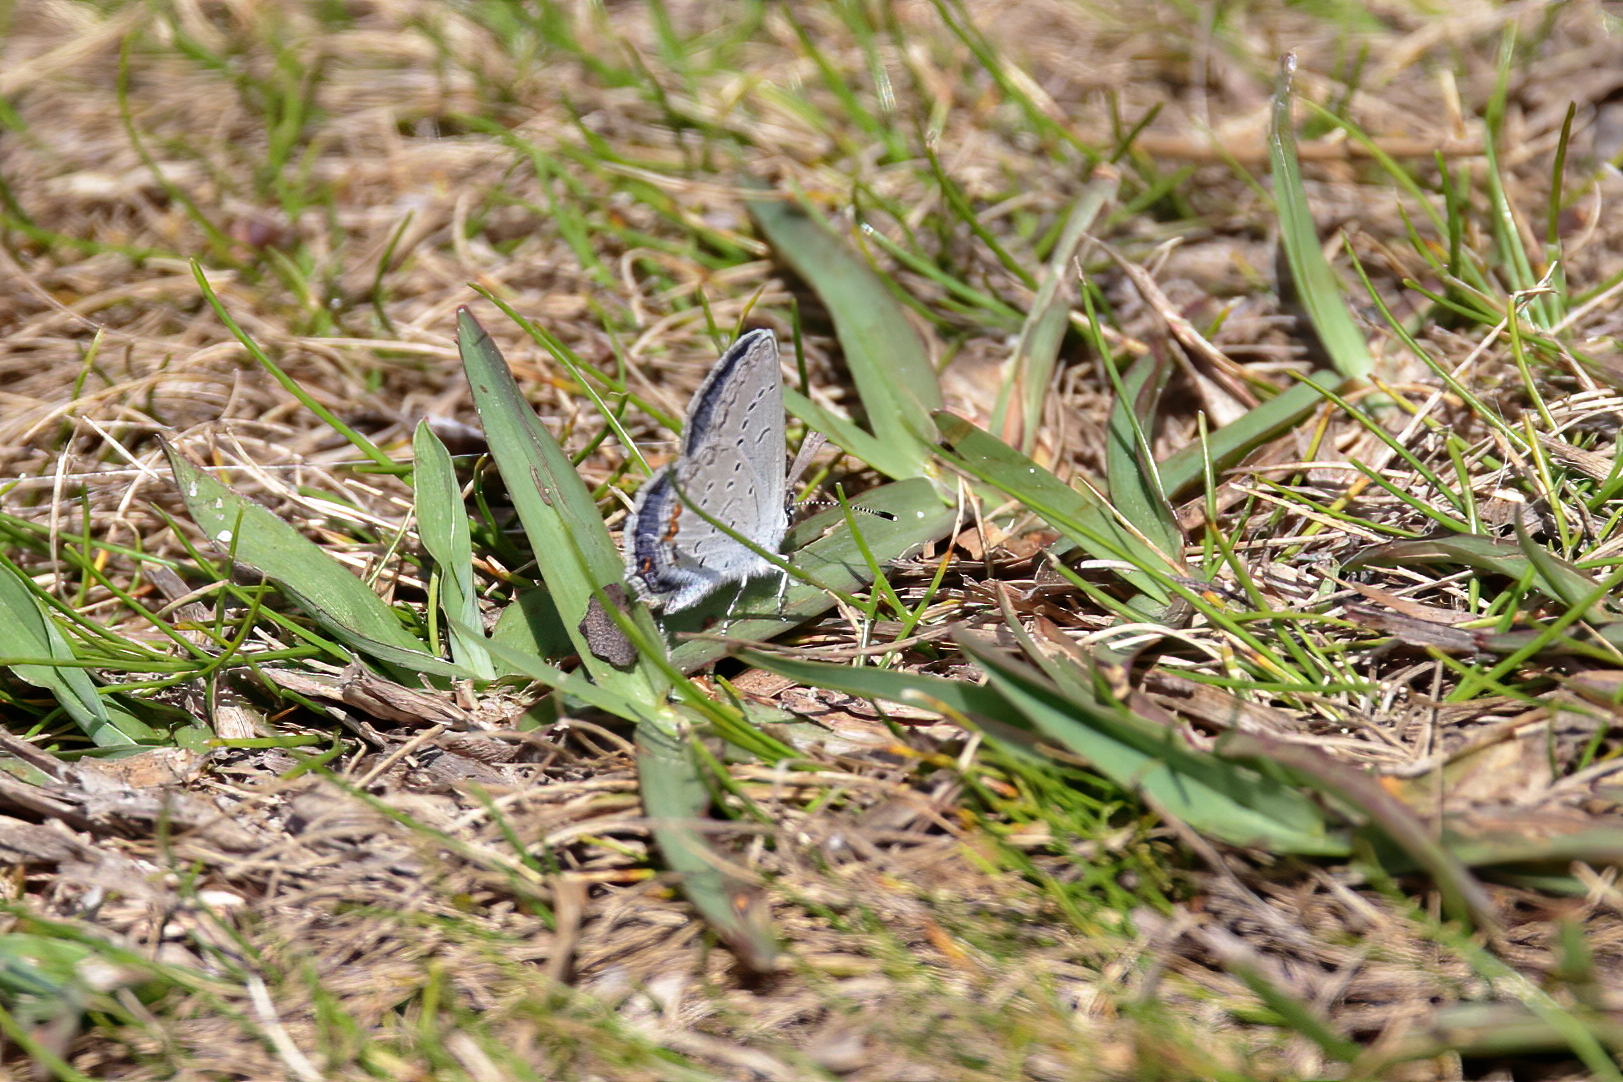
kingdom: Animalia
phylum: Arthropoda
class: Insecta
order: Lepidoptera
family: Lycaenidae
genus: Elkalyce
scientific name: Elkalyce comyntas
